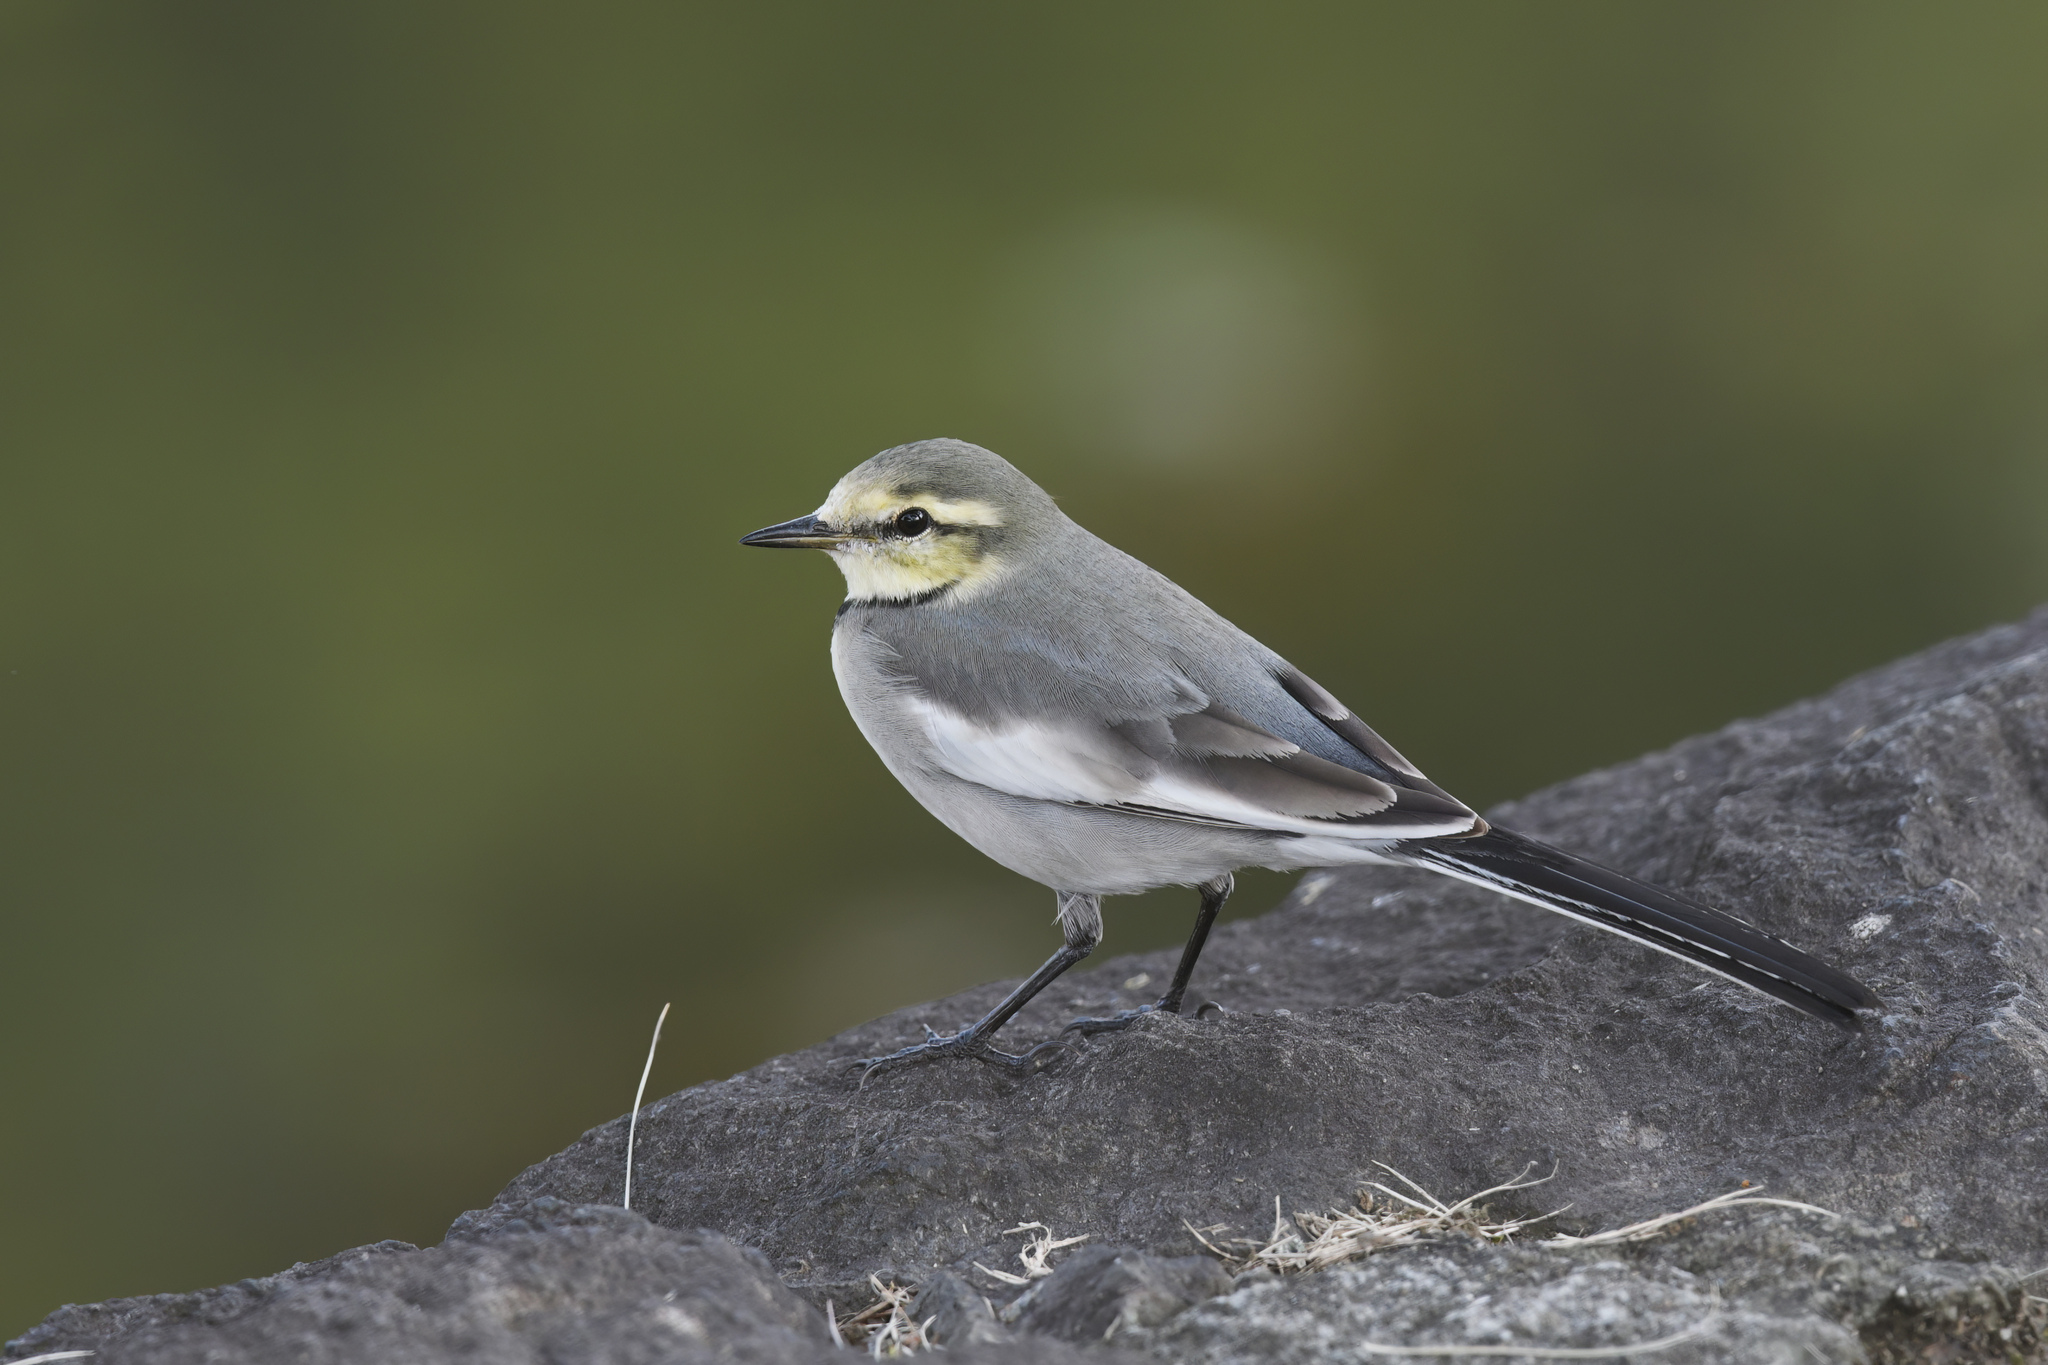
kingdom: Animalia
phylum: Chordata
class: Aves
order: Passeriformes
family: Motacillidae
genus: Motacilla
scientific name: Motacilla alba
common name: White wagtail
